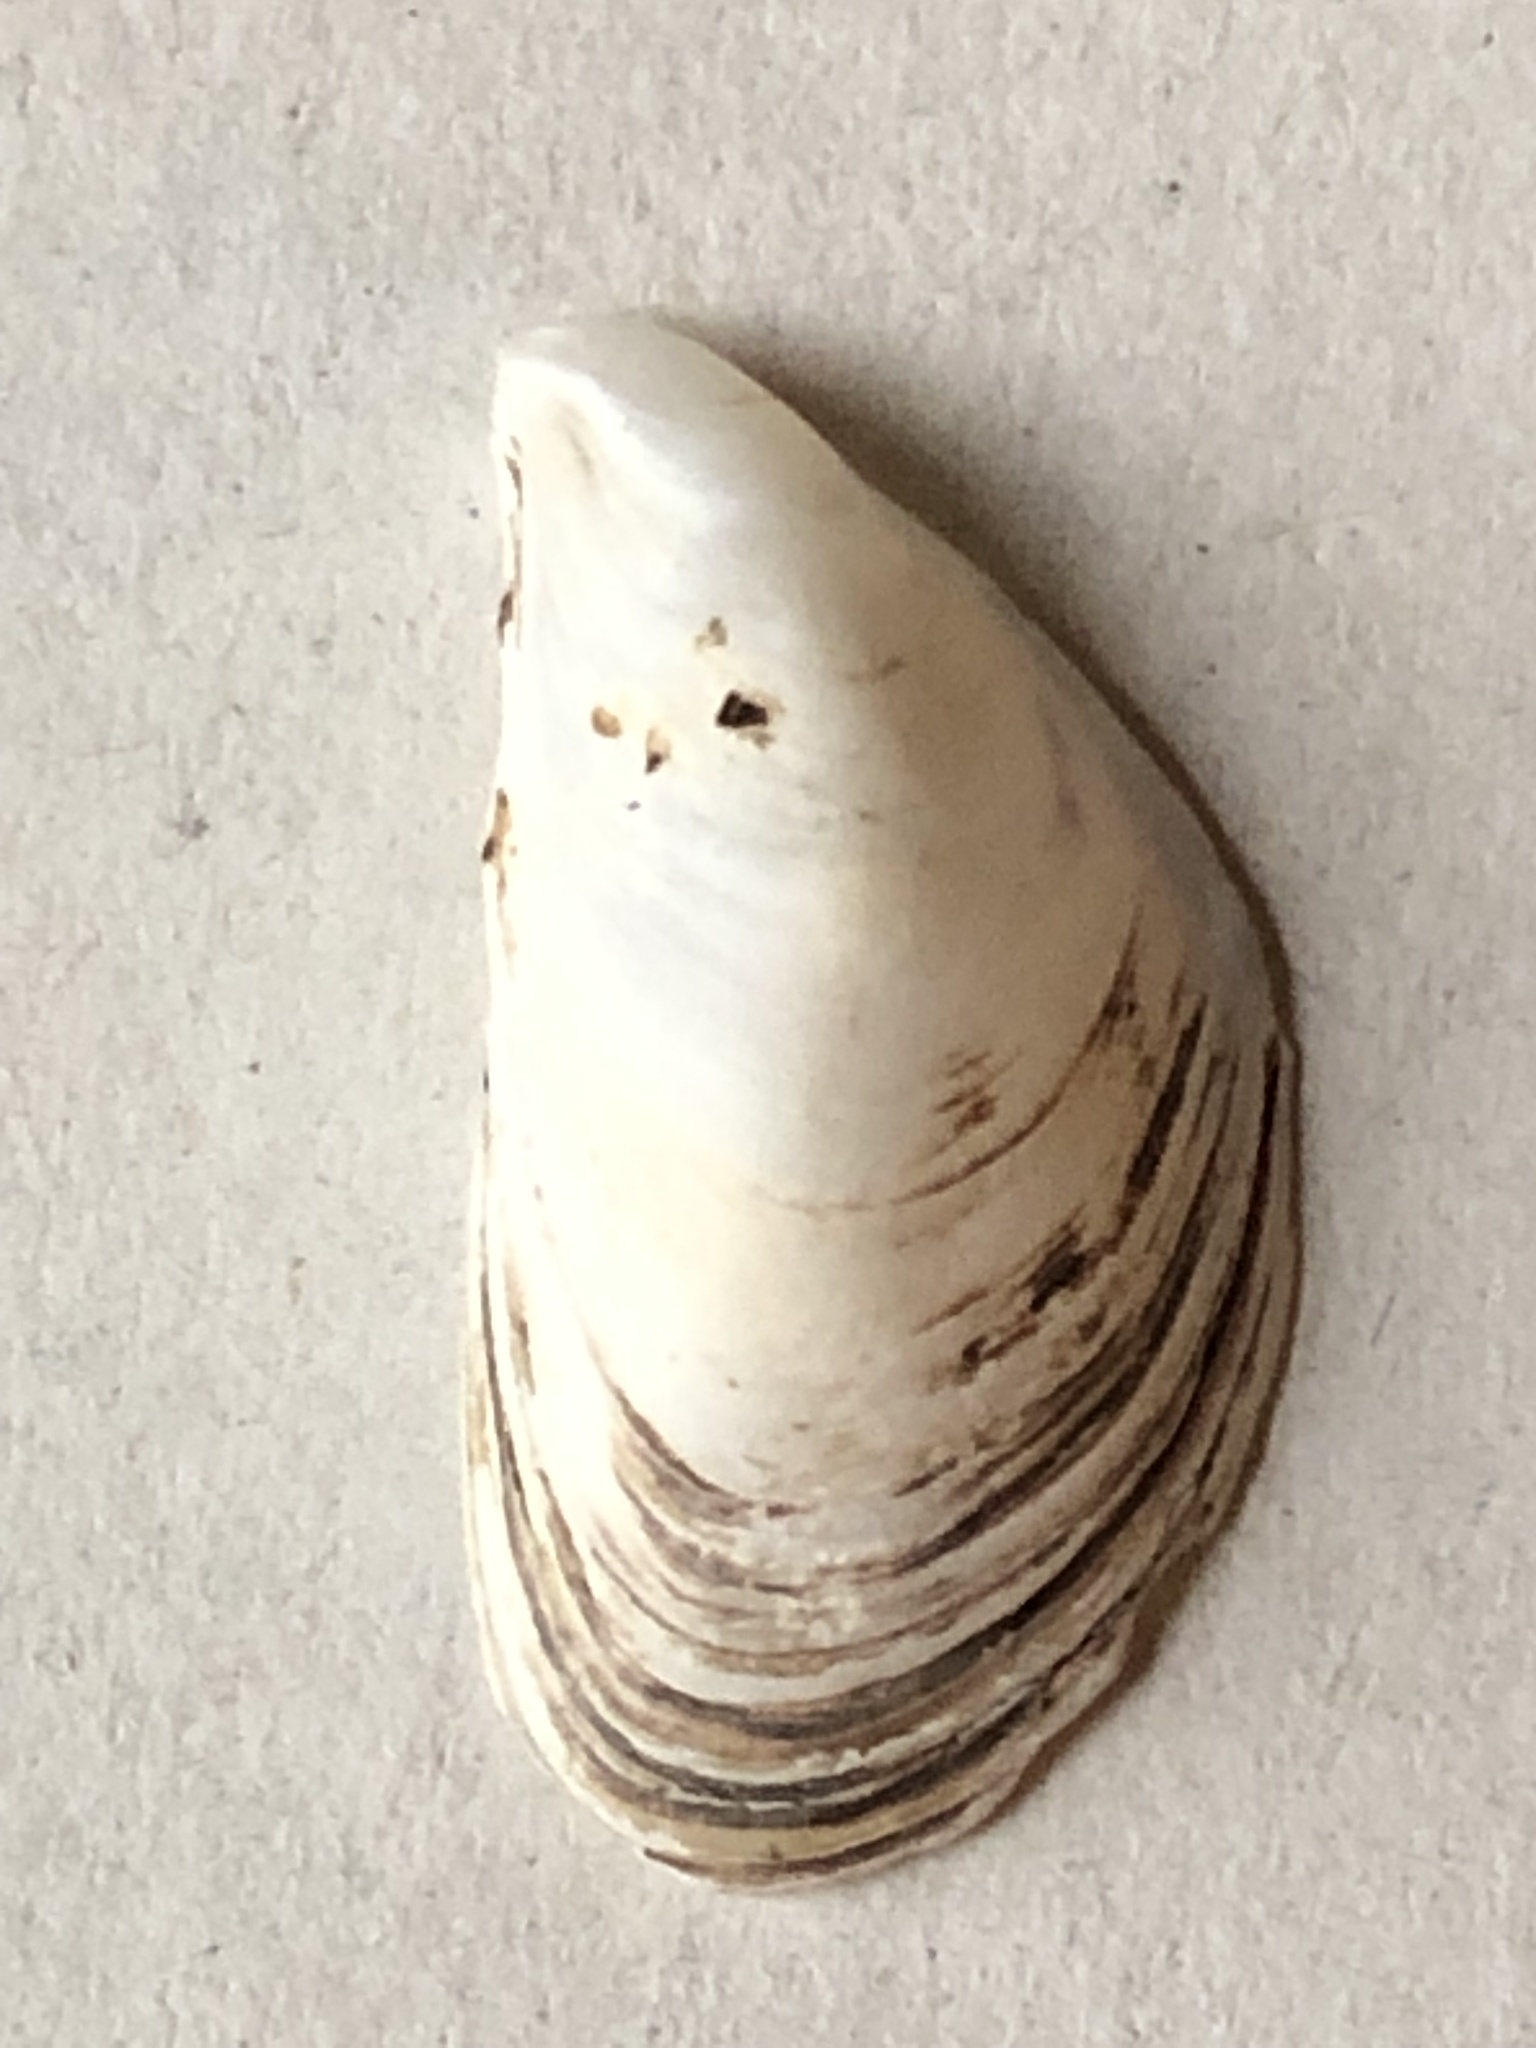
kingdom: Animalia
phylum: Mollusca
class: Bivalvia
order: Myida
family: Dreissenidae
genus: Dreissena
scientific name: Dreissena bugensis
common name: Quagga mussel
